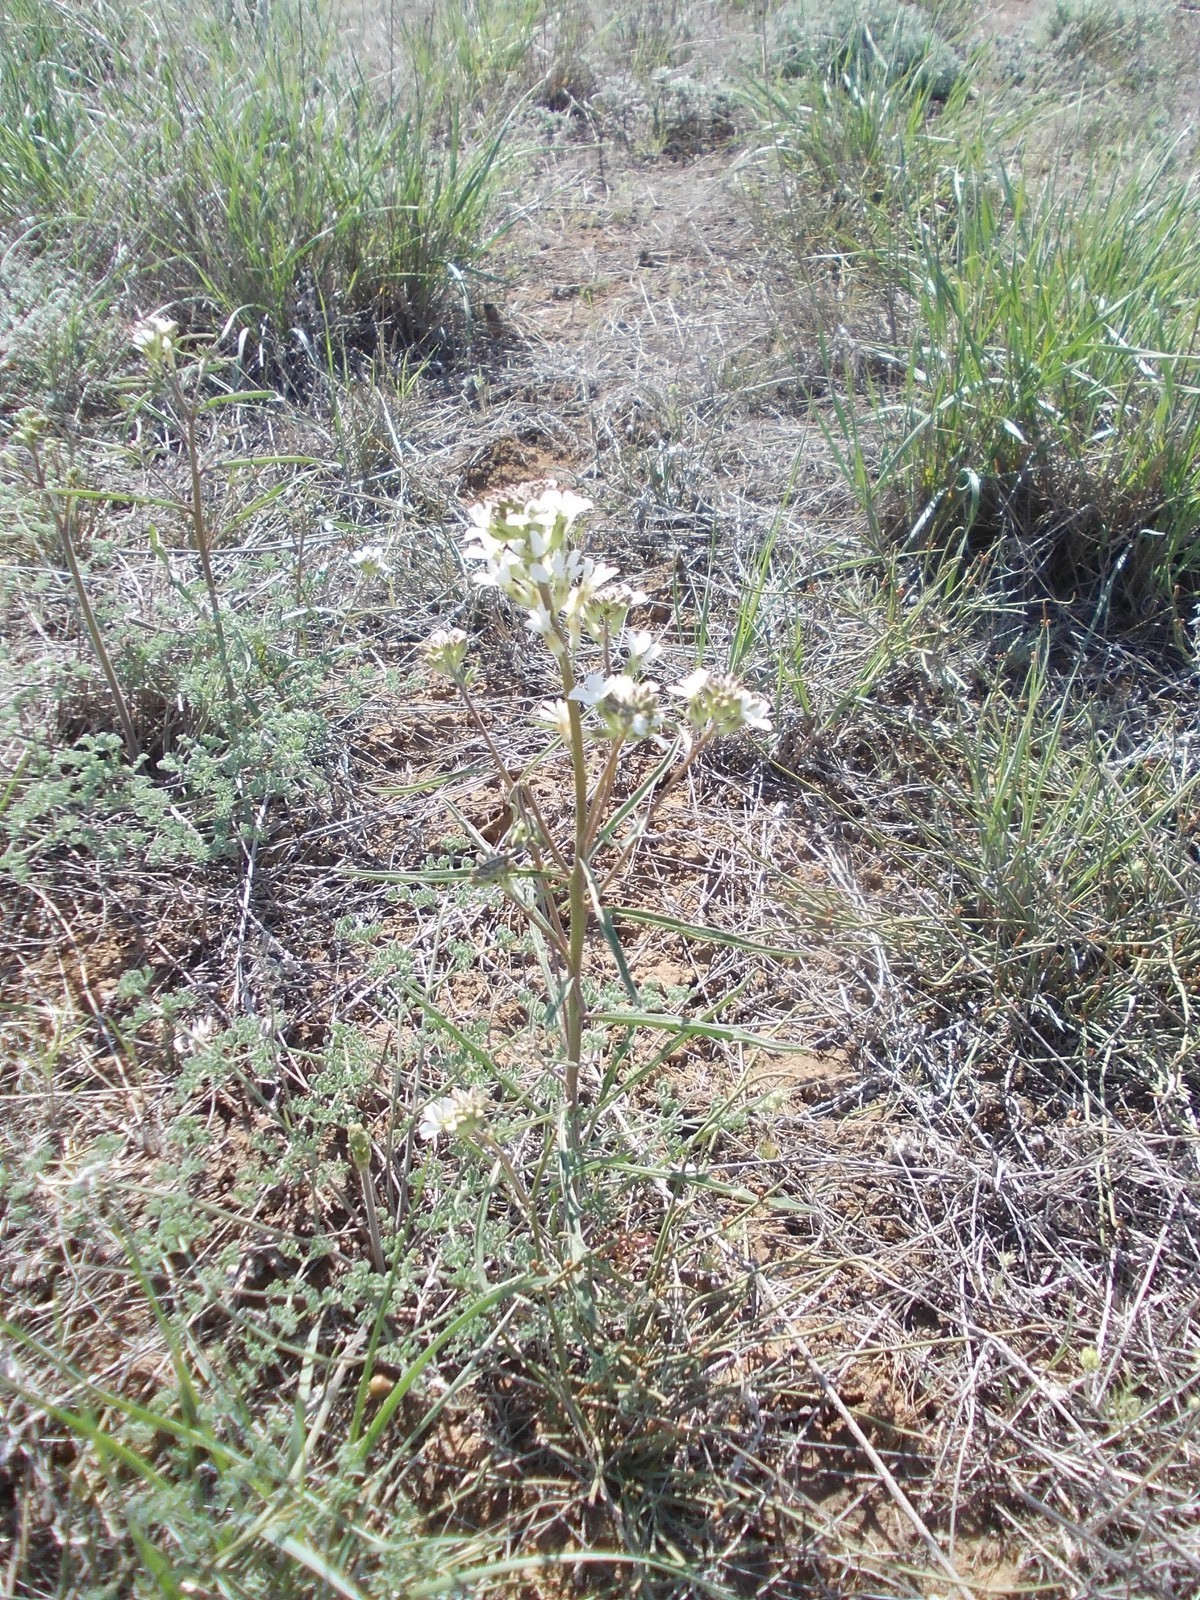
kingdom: Plantae
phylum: Tracheophyta
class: Magnoliopsida
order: Brassicales
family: Brassicaceae
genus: Erysimum
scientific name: Erysimum leucanthemum
